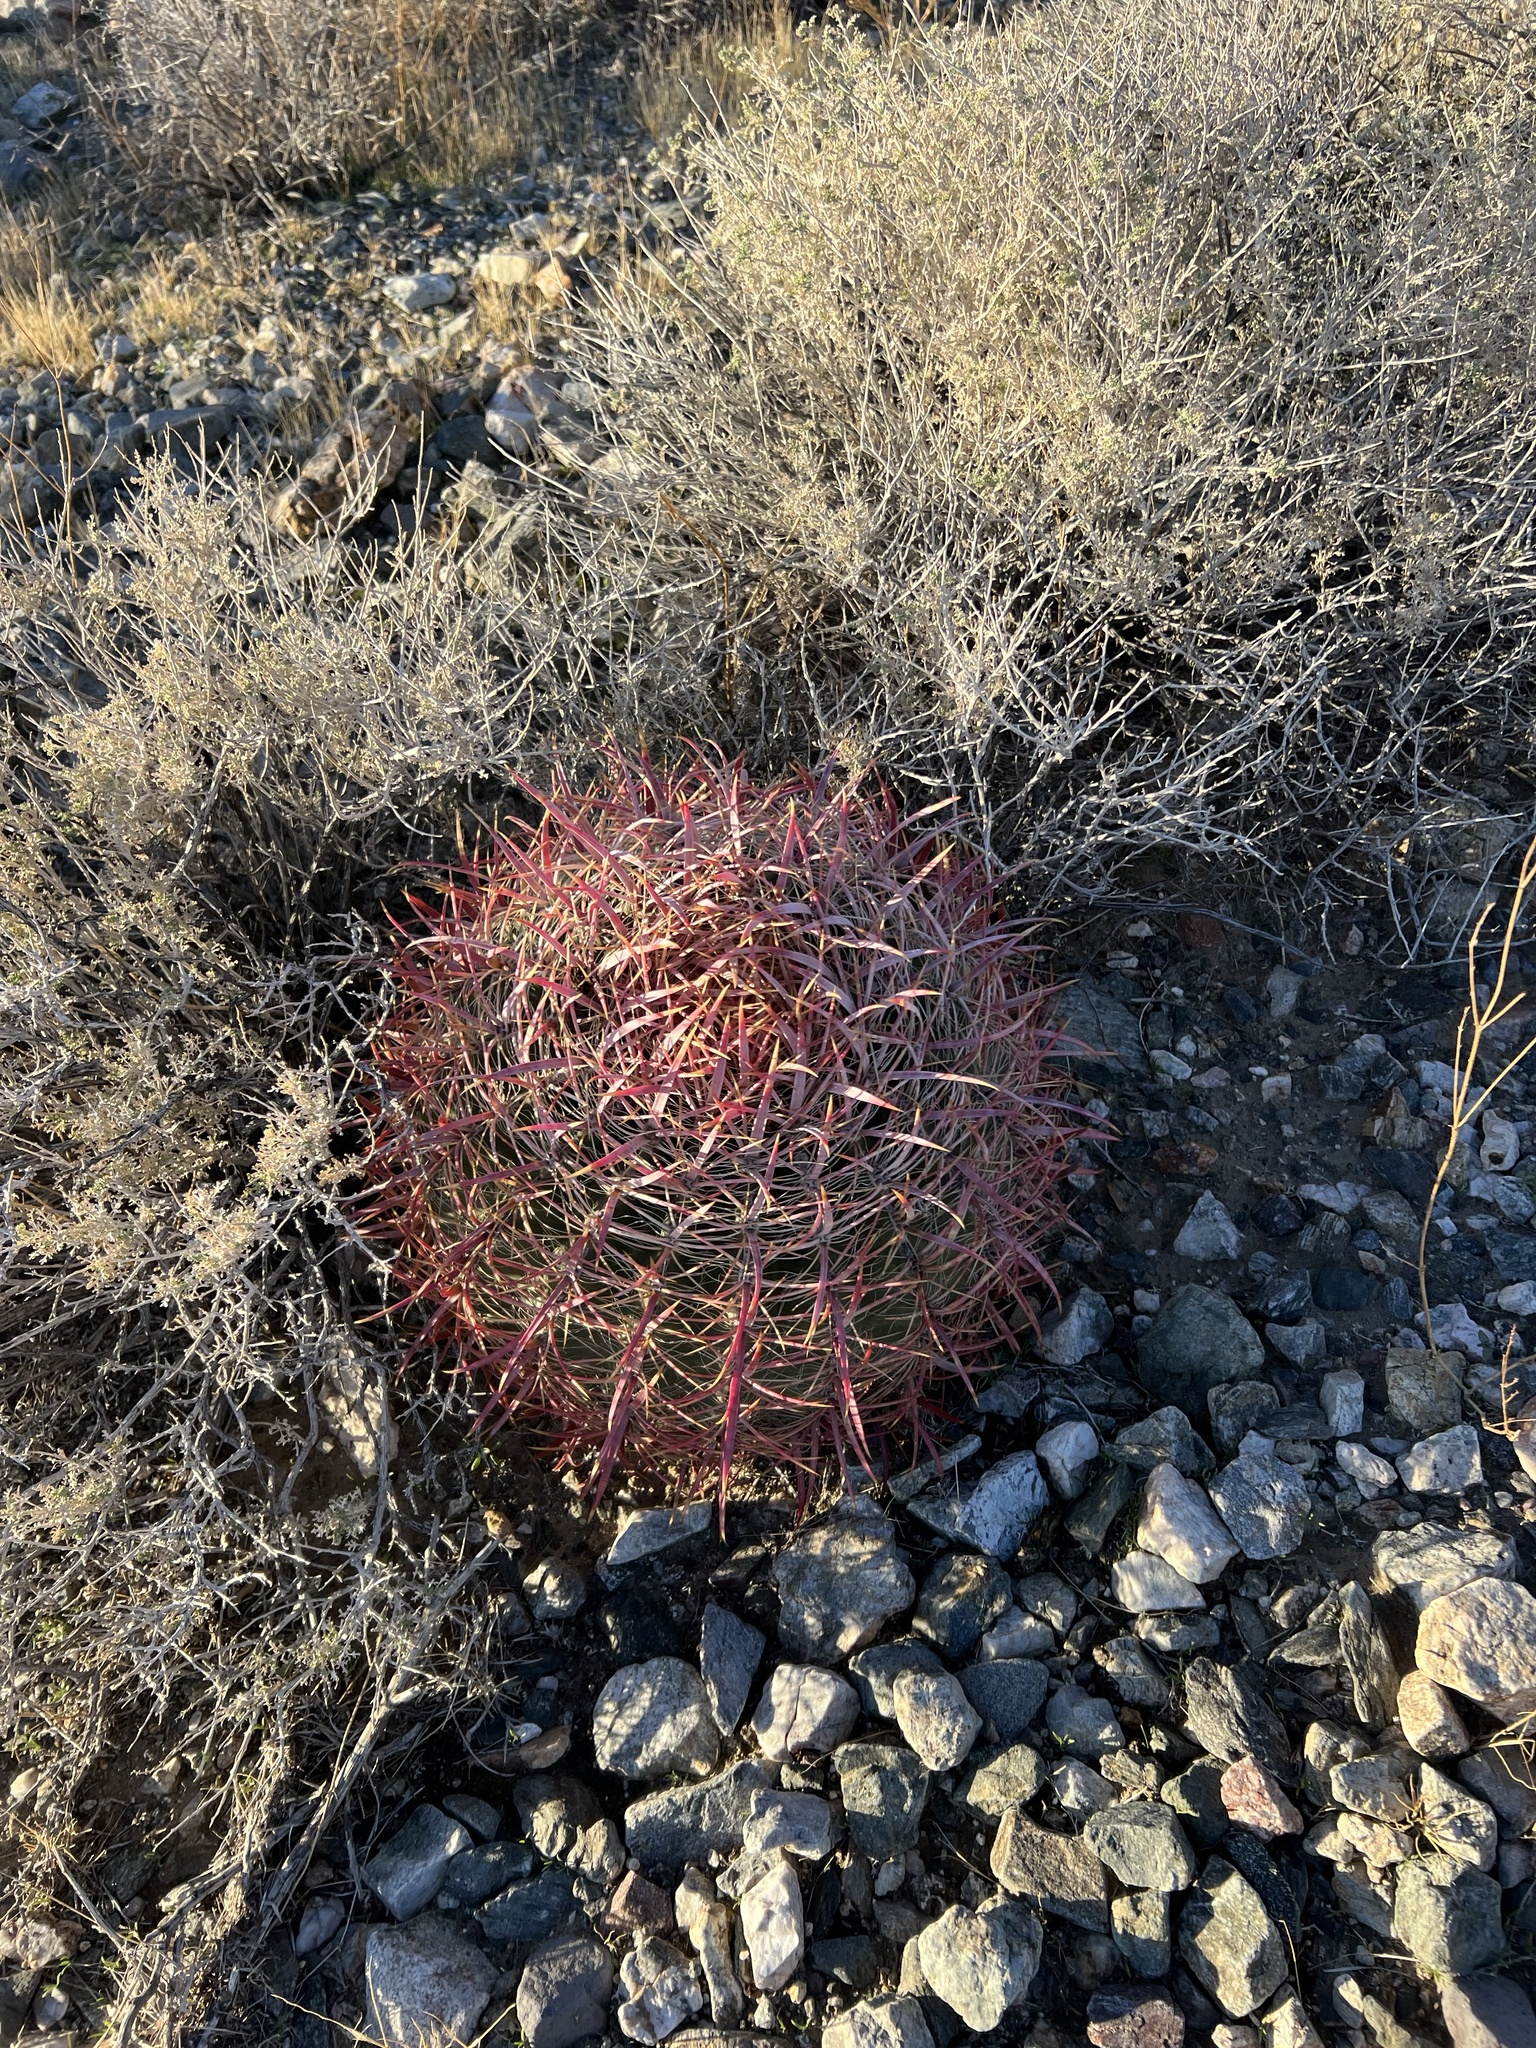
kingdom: Plantae
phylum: Tracheophyta
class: Magnoliopsida
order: Caryophyllales
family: Cactaceae
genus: Ferocactus
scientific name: Ferocactus cylindraceus
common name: California barrel cactus
